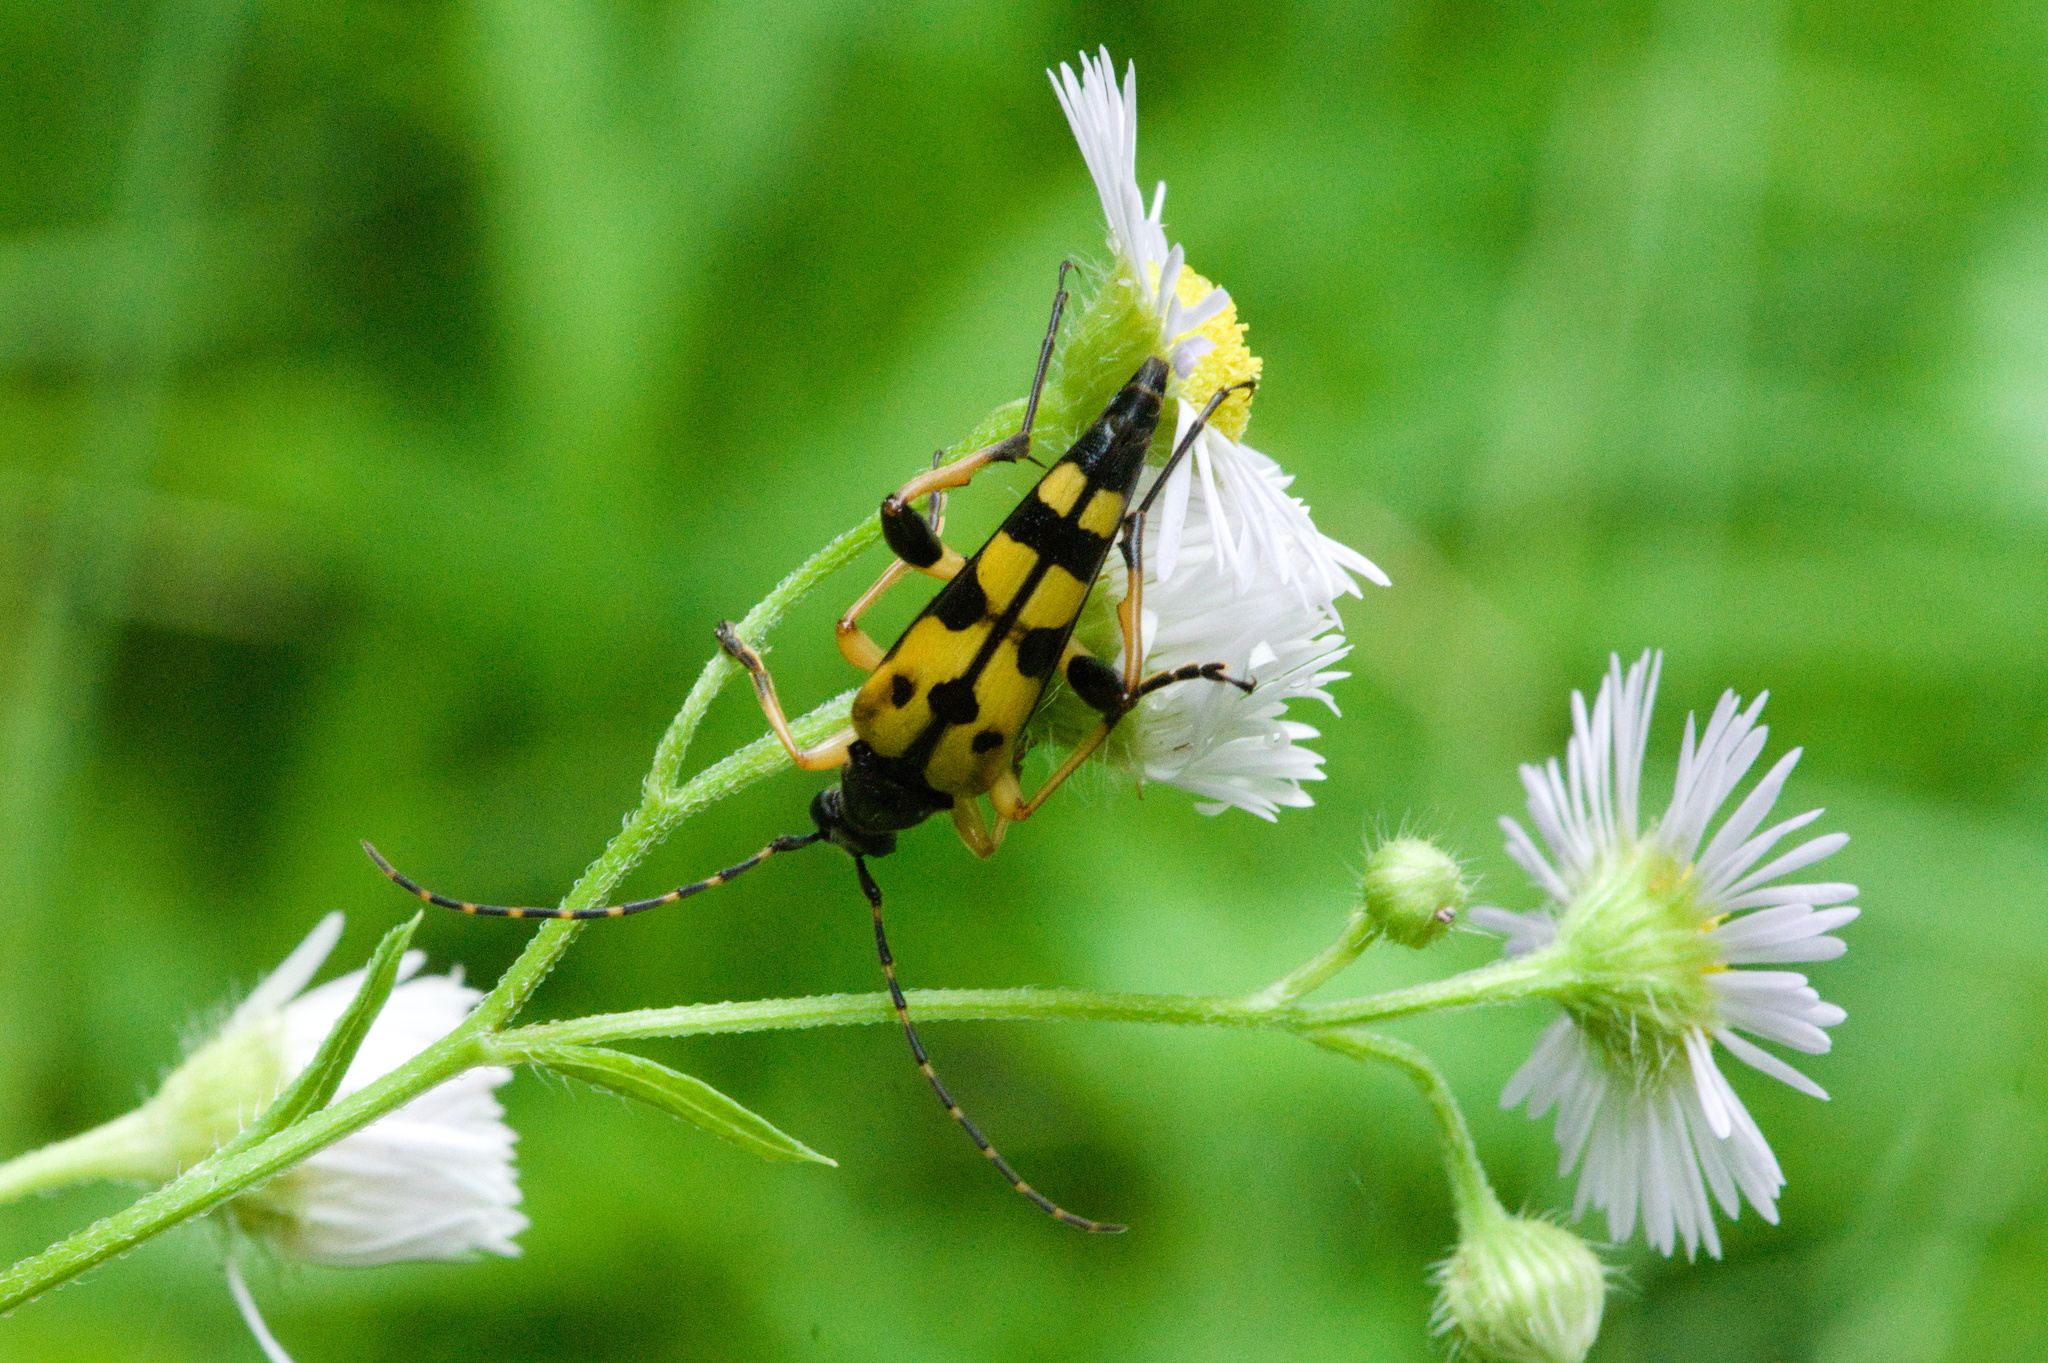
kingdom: Animalia
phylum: Arthropoda
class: Insecta
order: Coleoptera
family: Cerambycidae
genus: Rutpela
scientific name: Rutpela maculata
